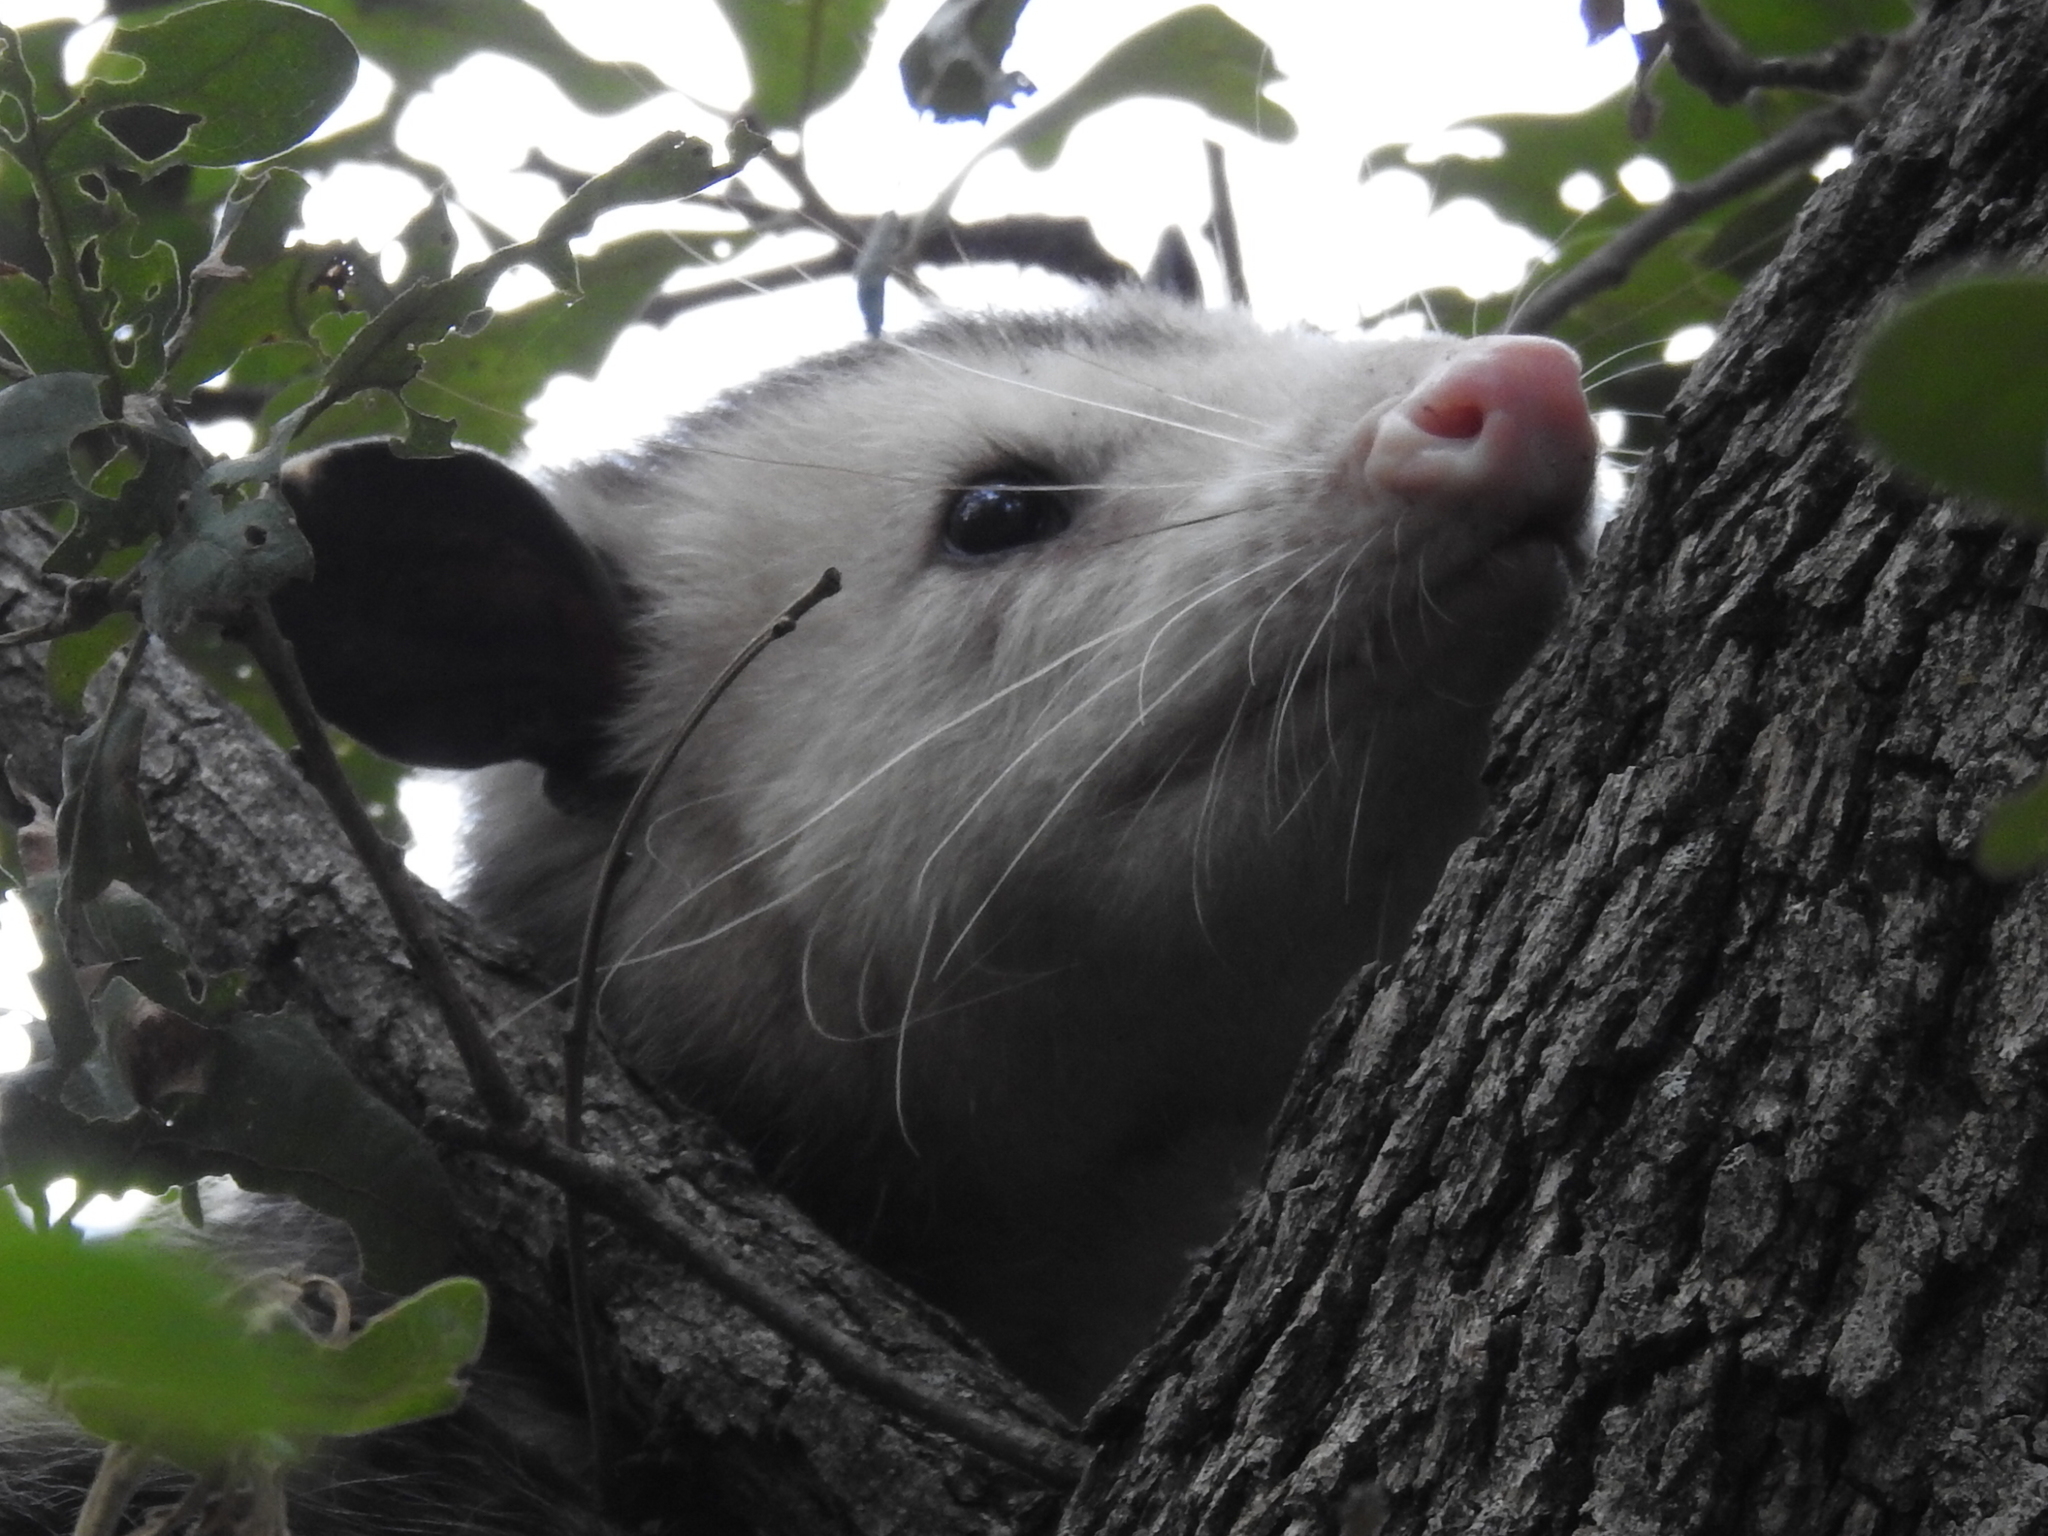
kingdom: Animalia
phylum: Chordata
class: Mammalia
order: Didelphimorphia
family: Didelphidae
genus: Didelphis
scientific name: Didelphis virginiana
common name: Virginia opossum
